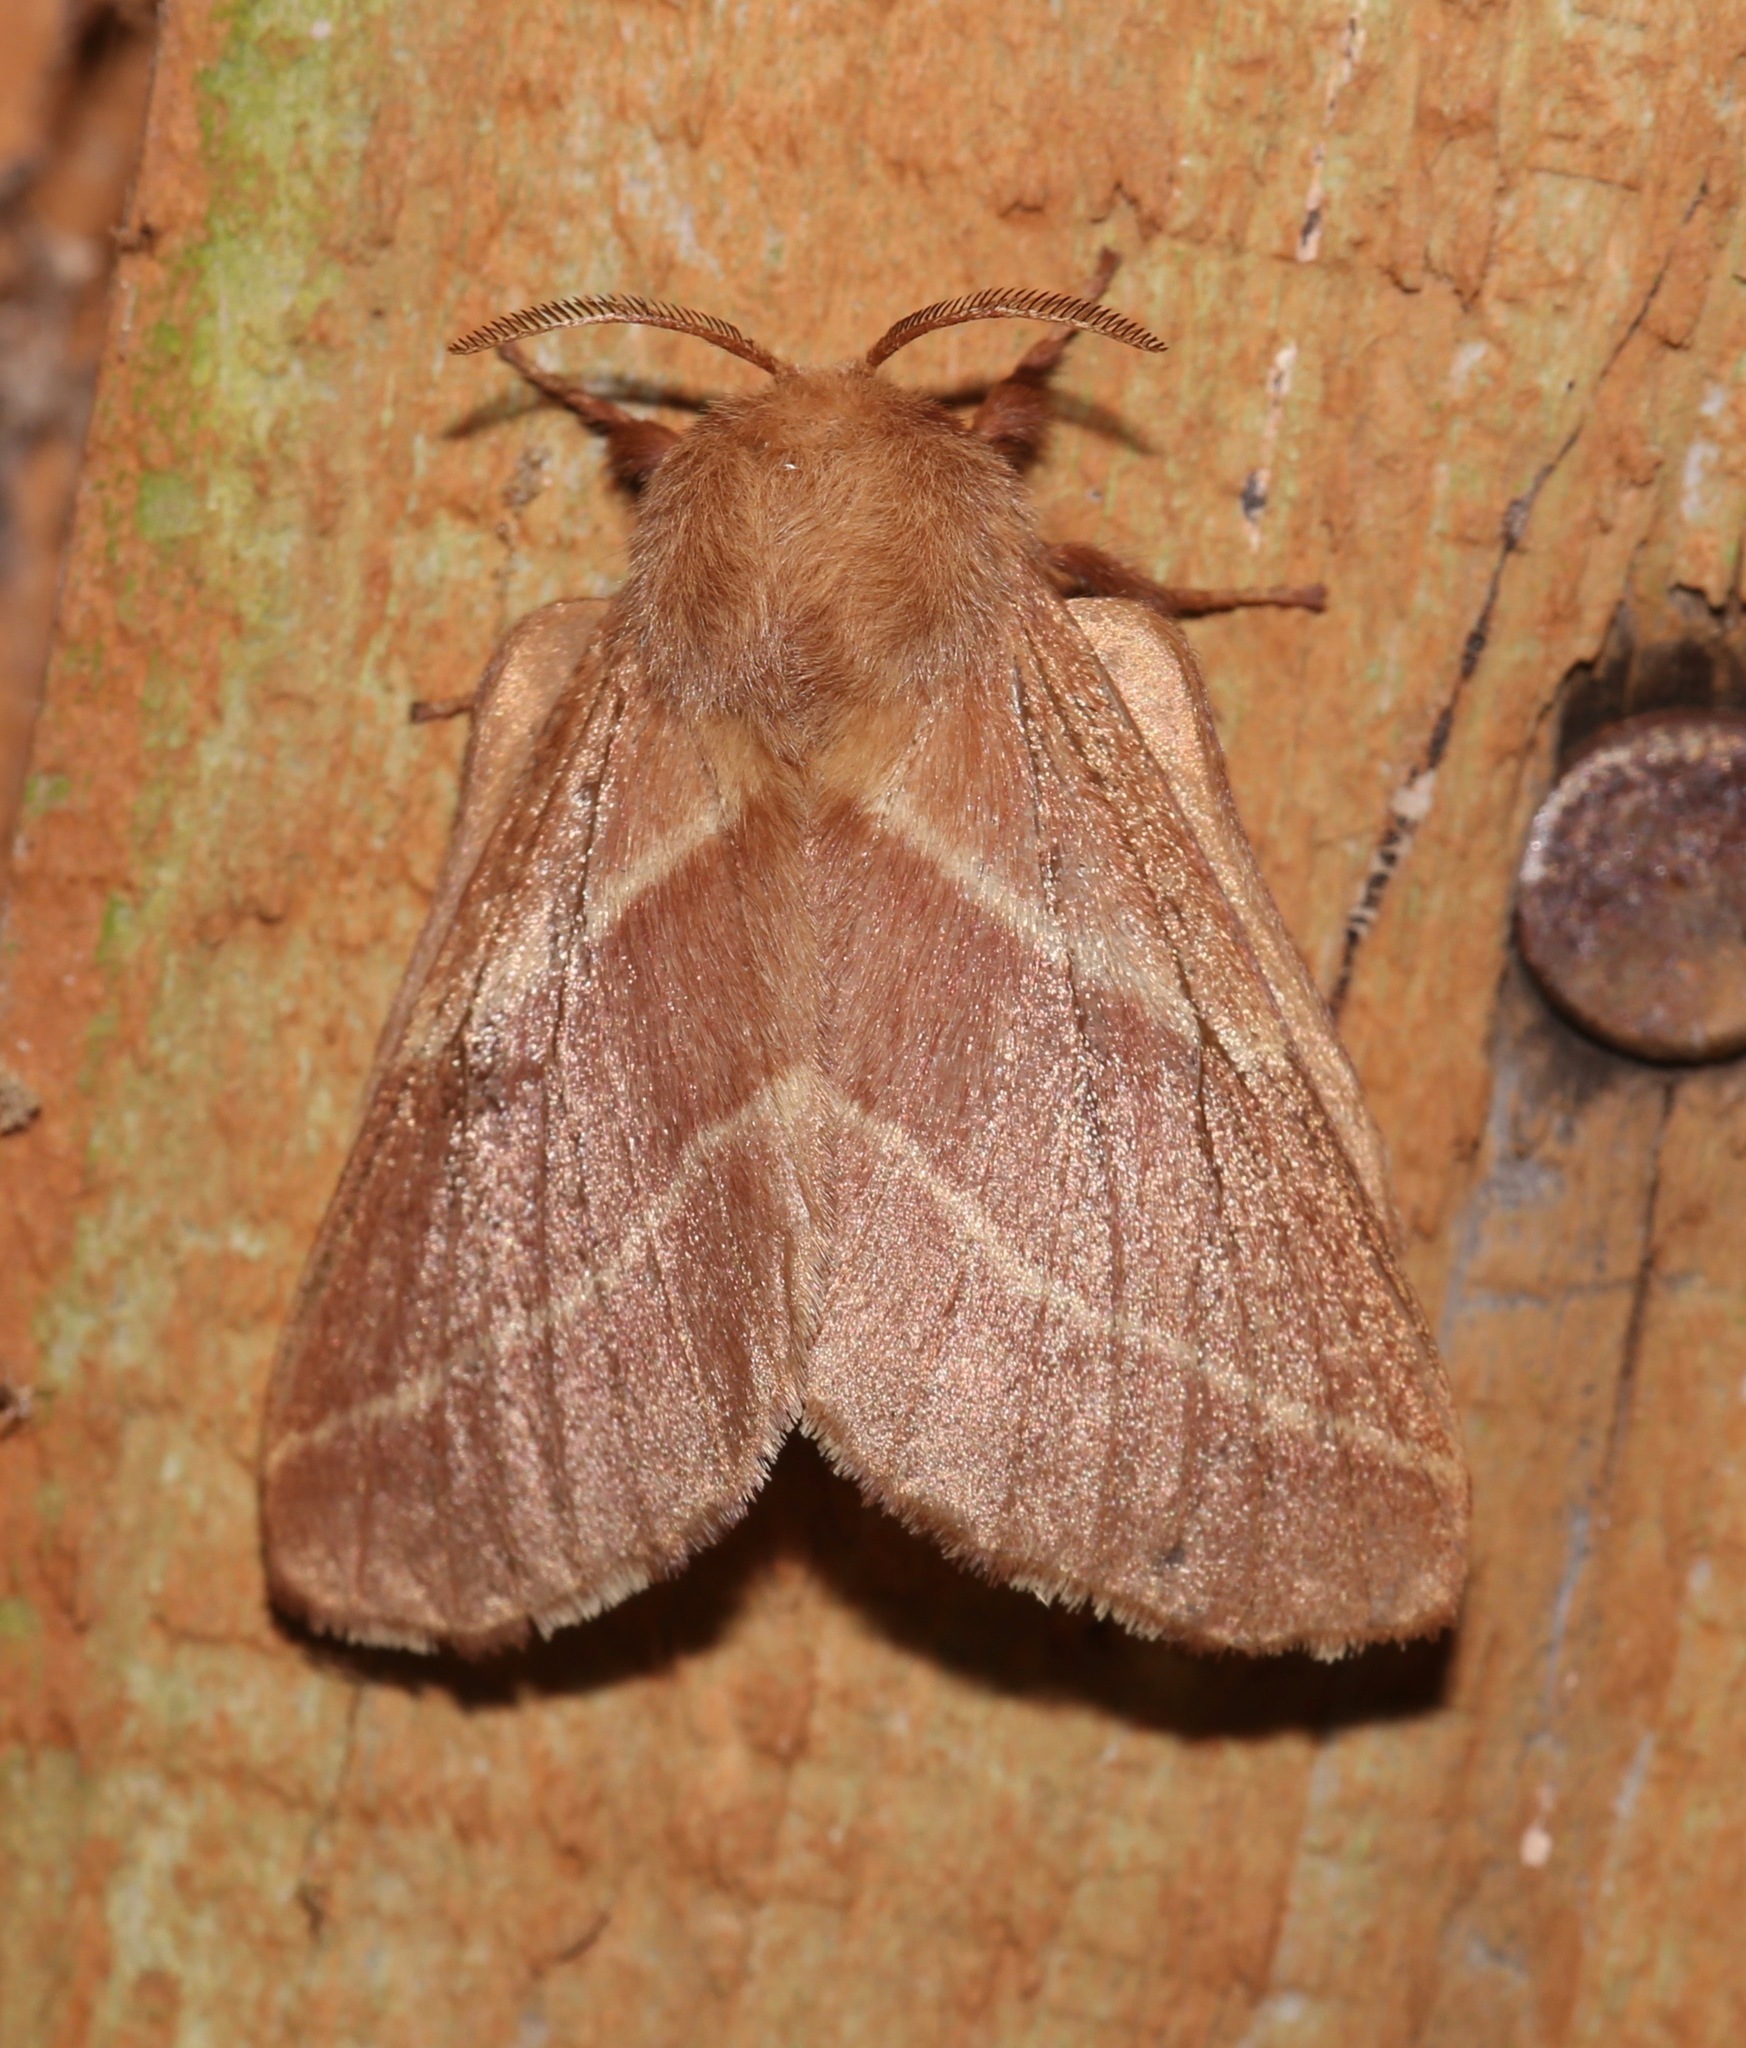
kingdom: Animalia
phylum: Arthropoda
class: Insecta
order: Lepidoptera
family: Lasiocampidae
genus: Malacosoma
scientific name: Malacosoma americana
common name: Eastern tent caterpillar moth
